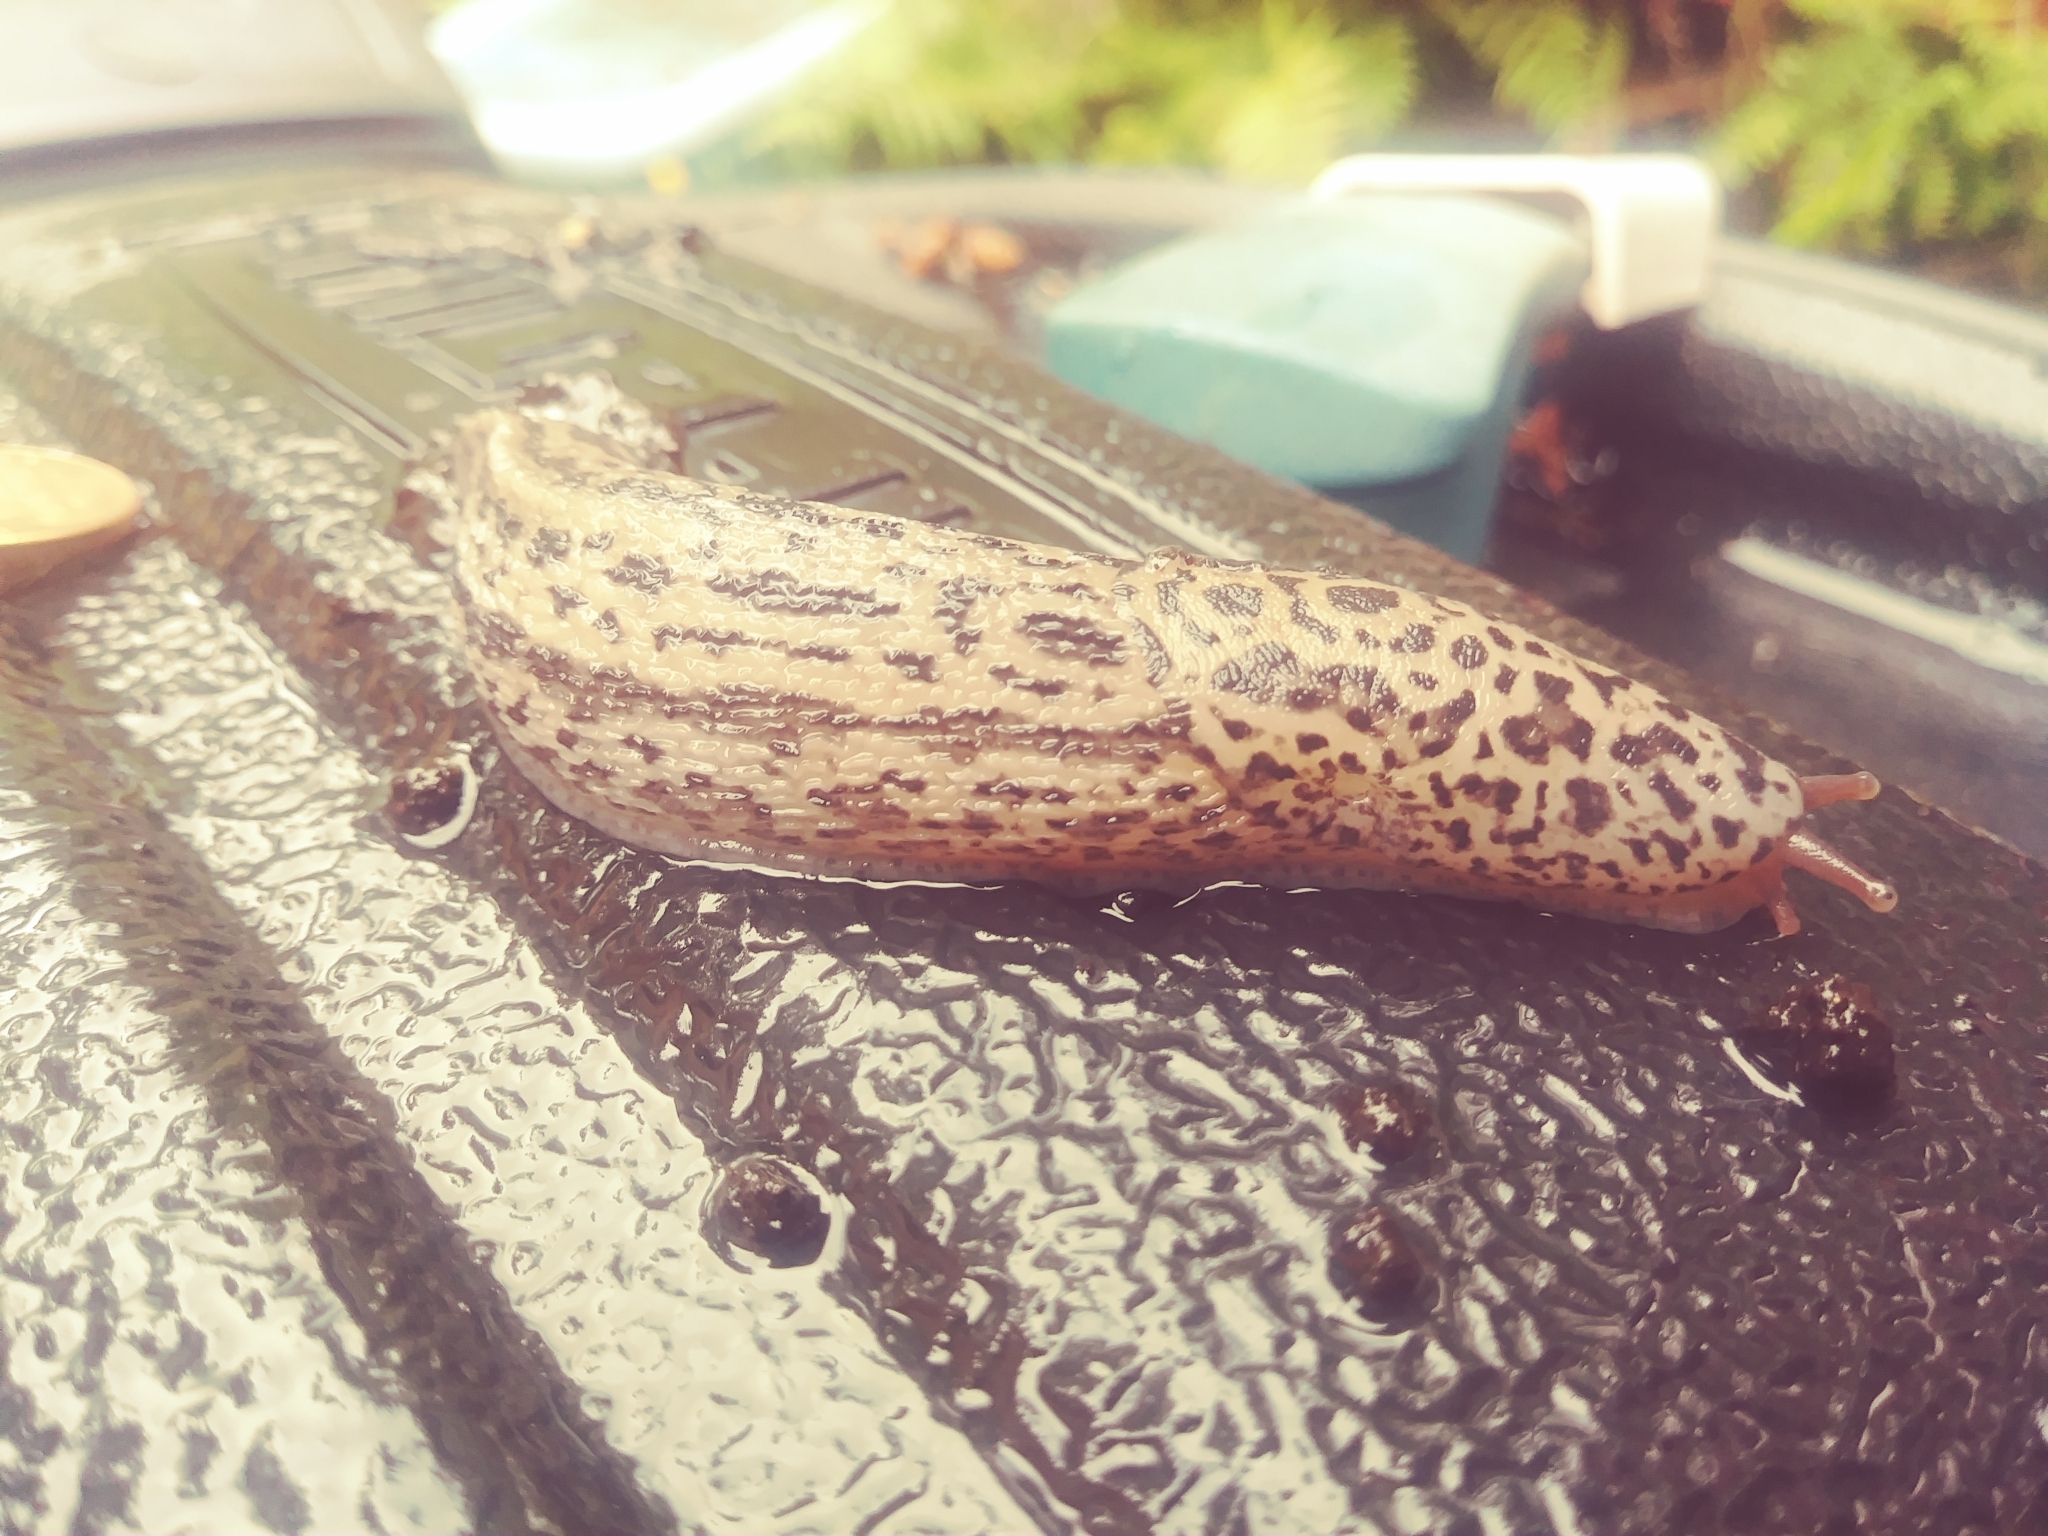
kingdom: Animalia
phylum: Mollusca
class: Gastropoda
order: Stylommatophora
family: Limacidae
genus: Limax
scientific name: Limax maximus
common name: Great grey slug
